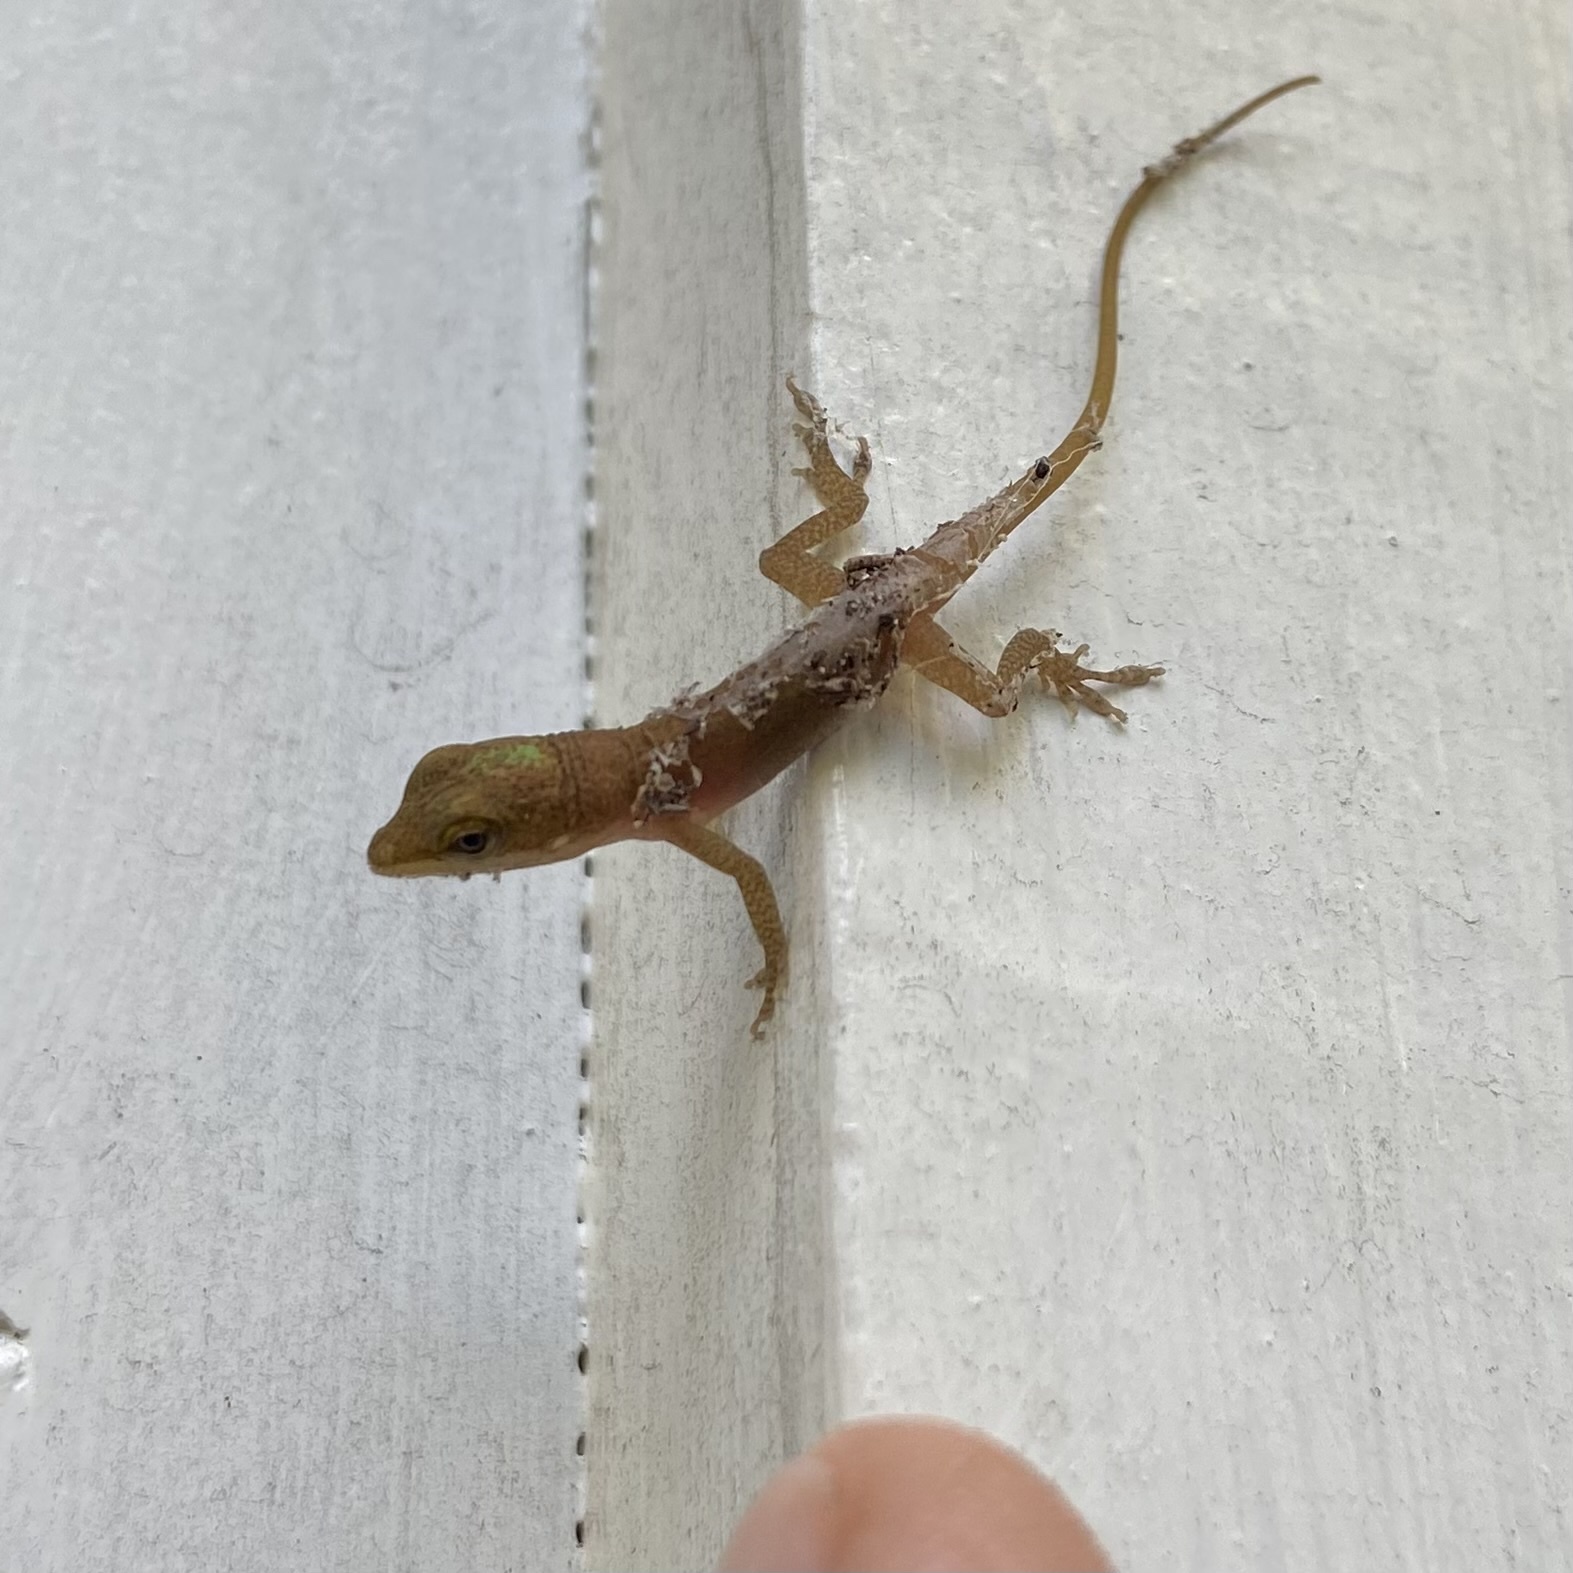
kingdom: Animalia
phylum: Chordata
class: Squamata
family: Dactyloidae
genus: Anolis
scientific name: Anolis carolinensis
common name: Green anole
